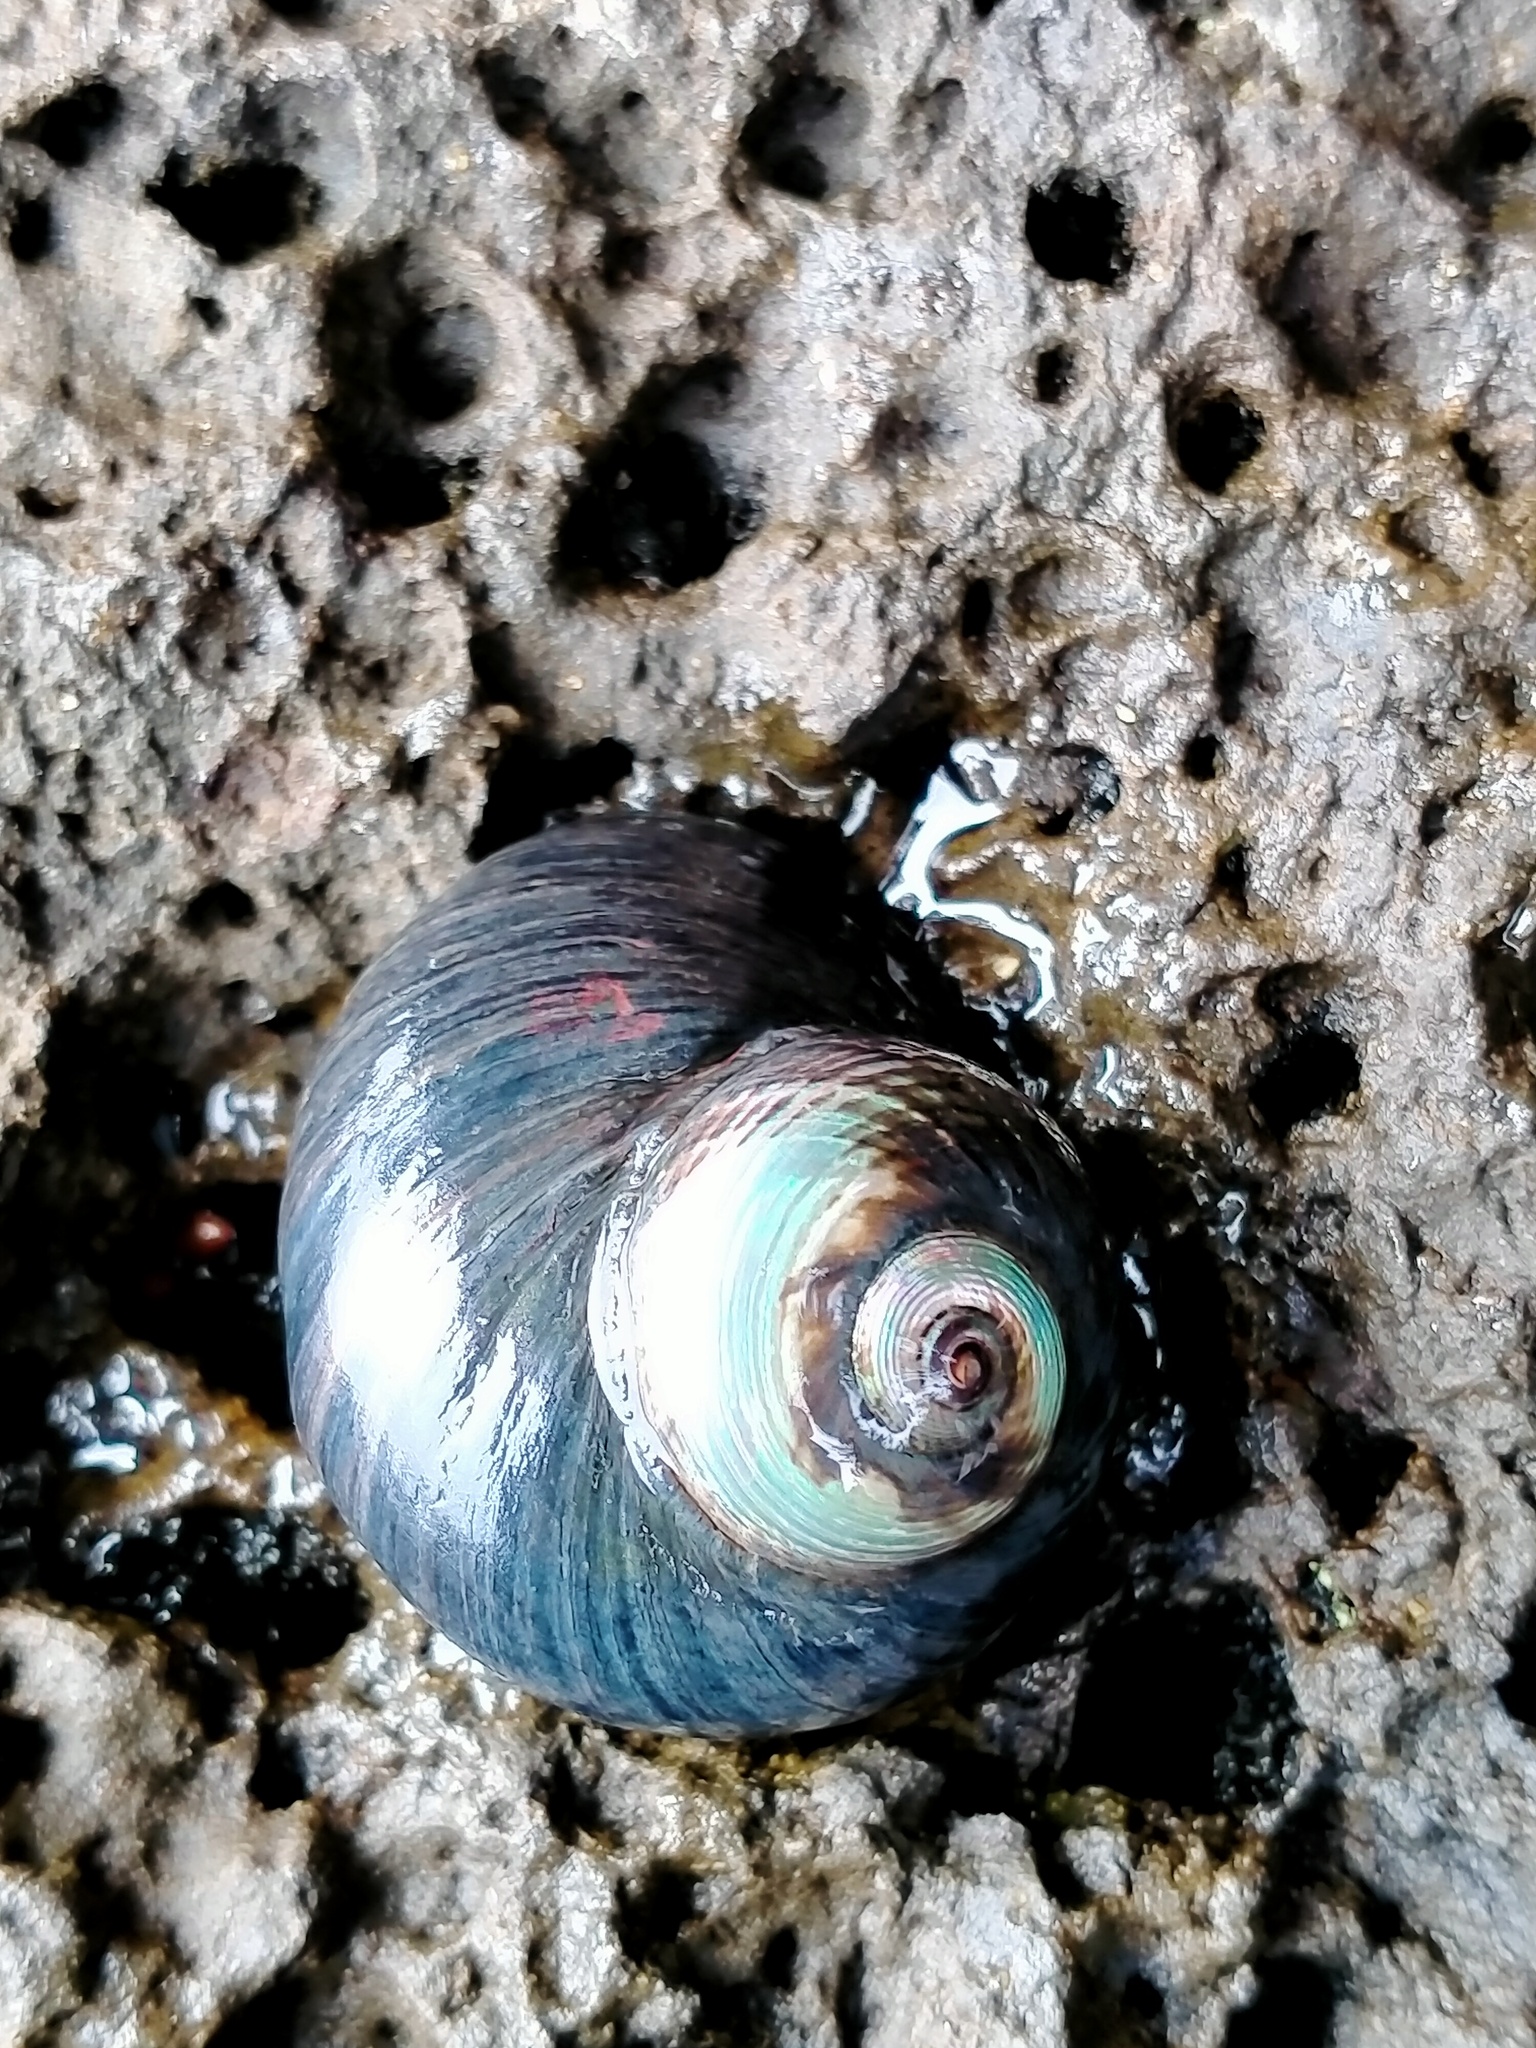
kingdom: Animalia
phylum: Mollusca
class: Gastropoda
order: Trochida
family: Trochidae
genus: Diloma
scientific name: Diloma nigerrimum
